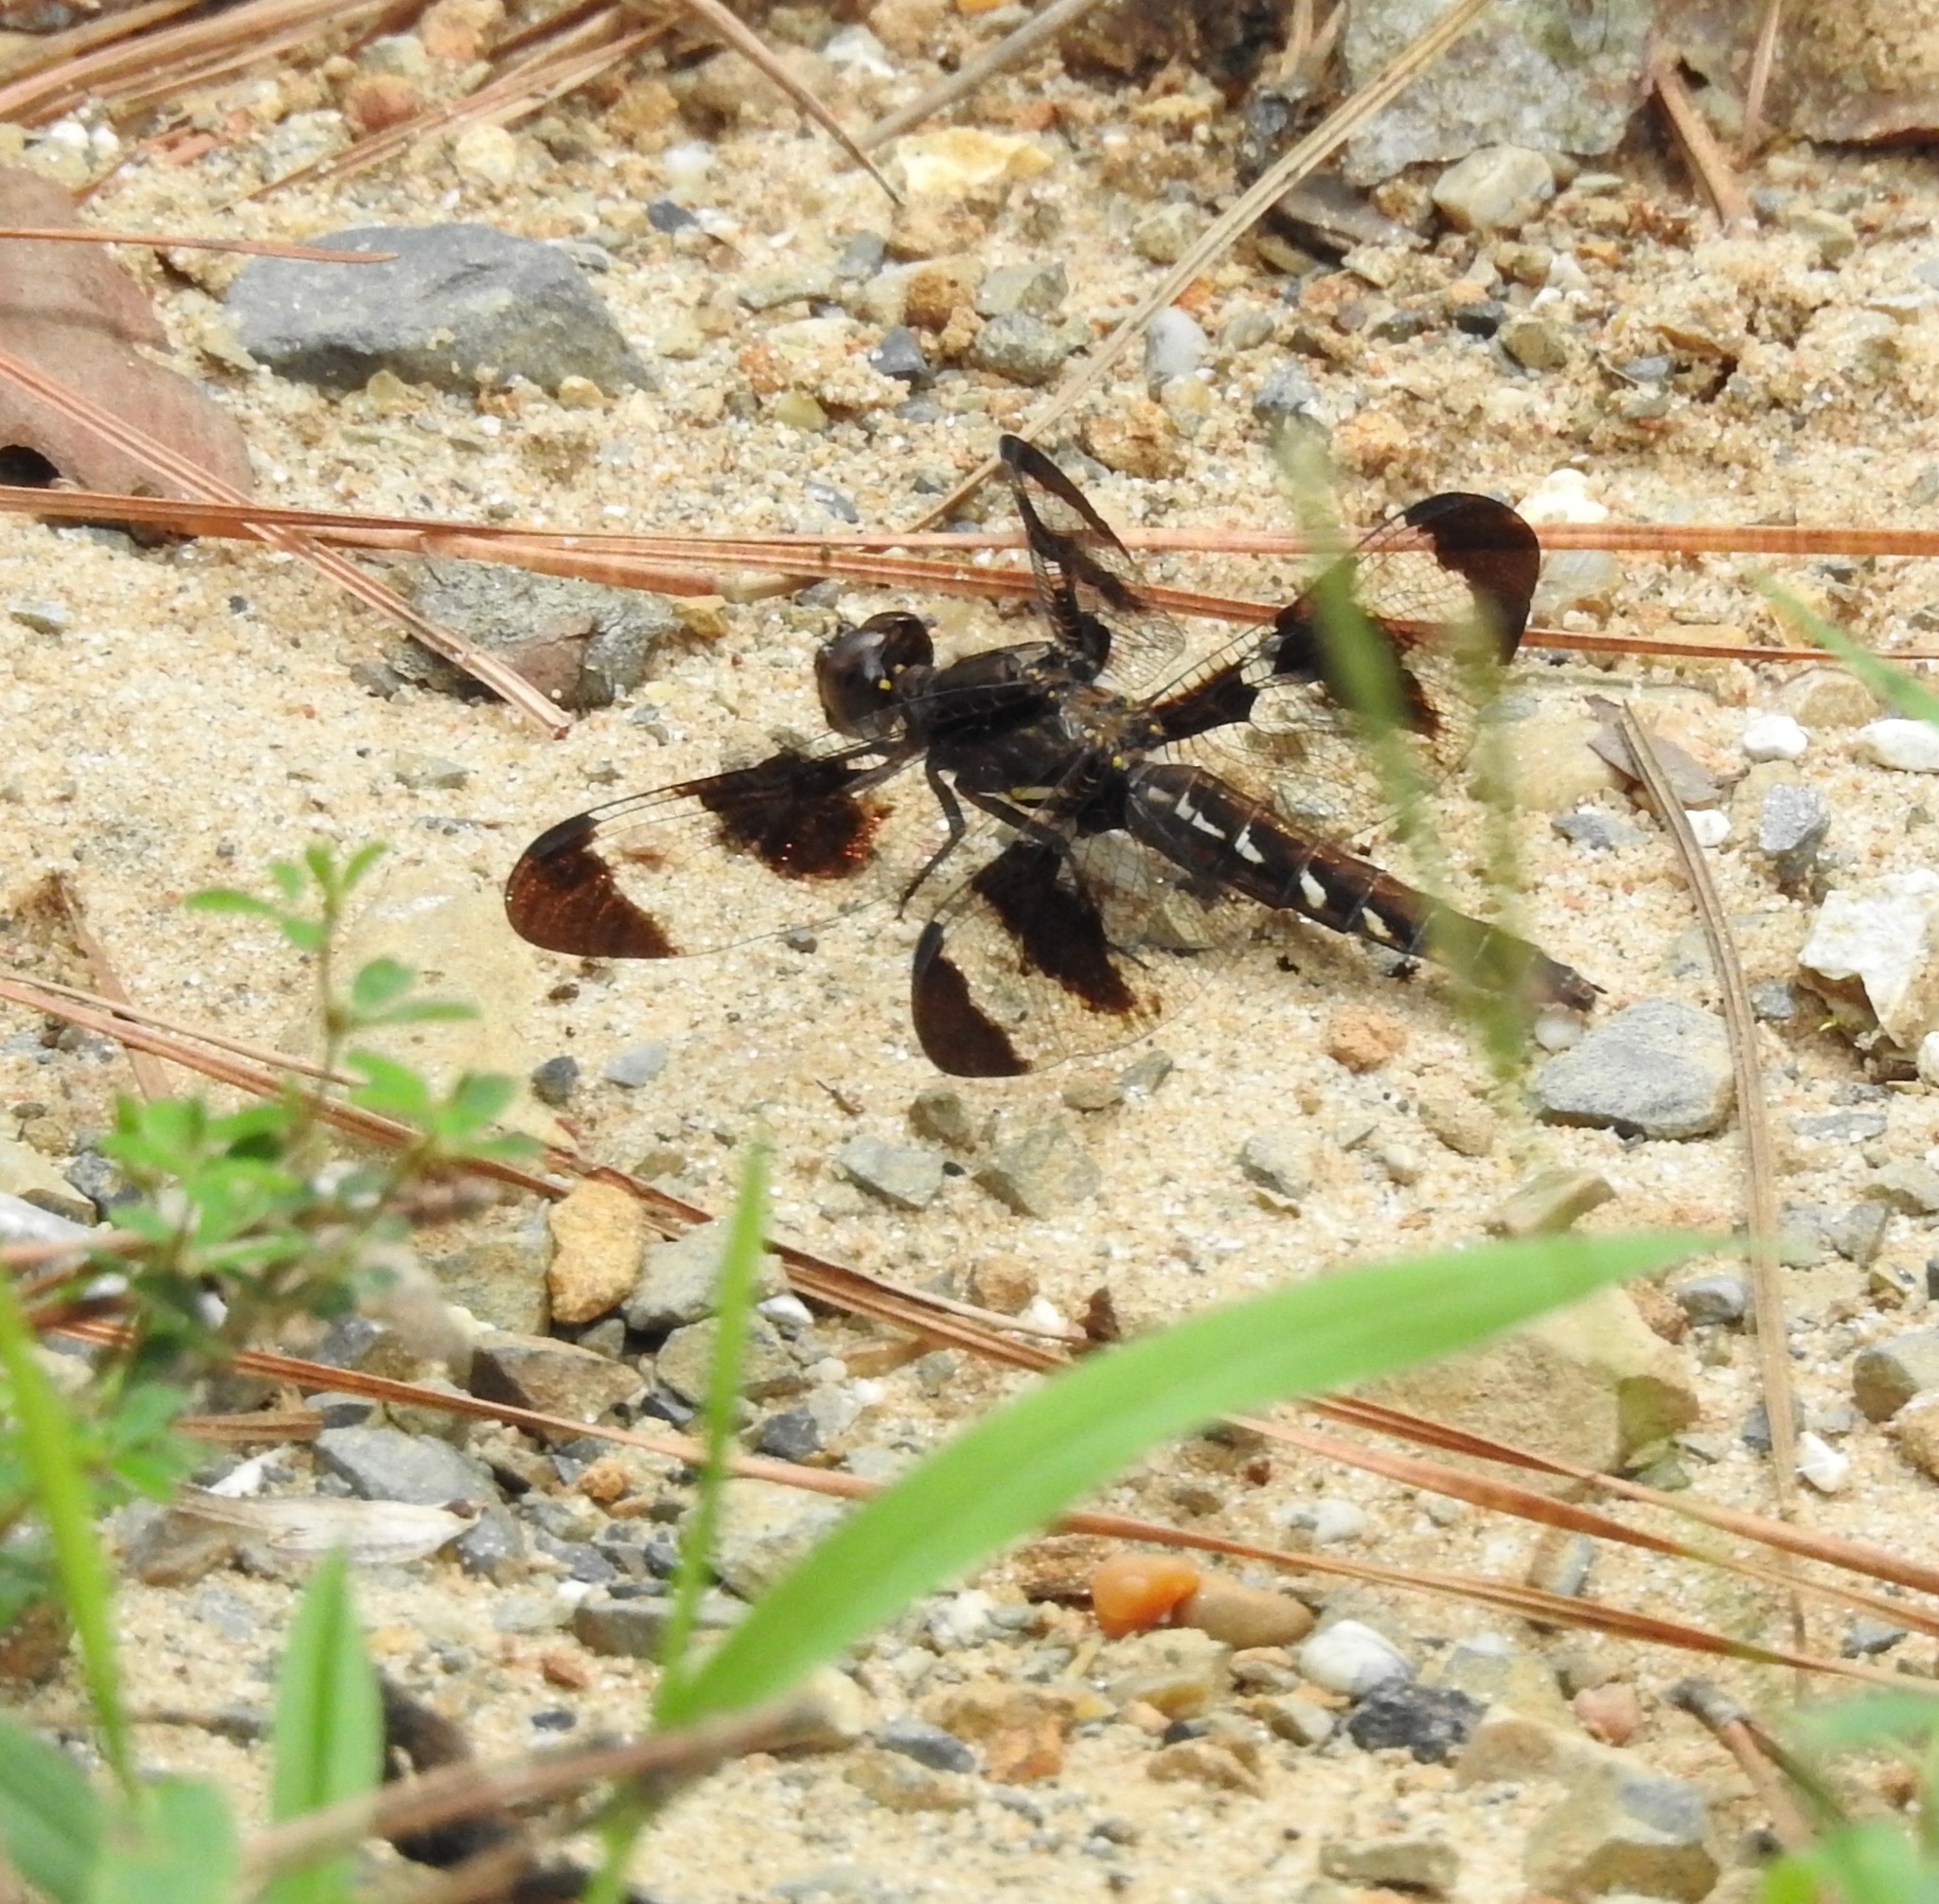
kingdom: Animalia
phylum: Arthropoda
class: Insecta
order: Odonata
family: Libellulidae
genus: Plathemis
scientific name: Plathemis lydia
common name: Common whitetail
